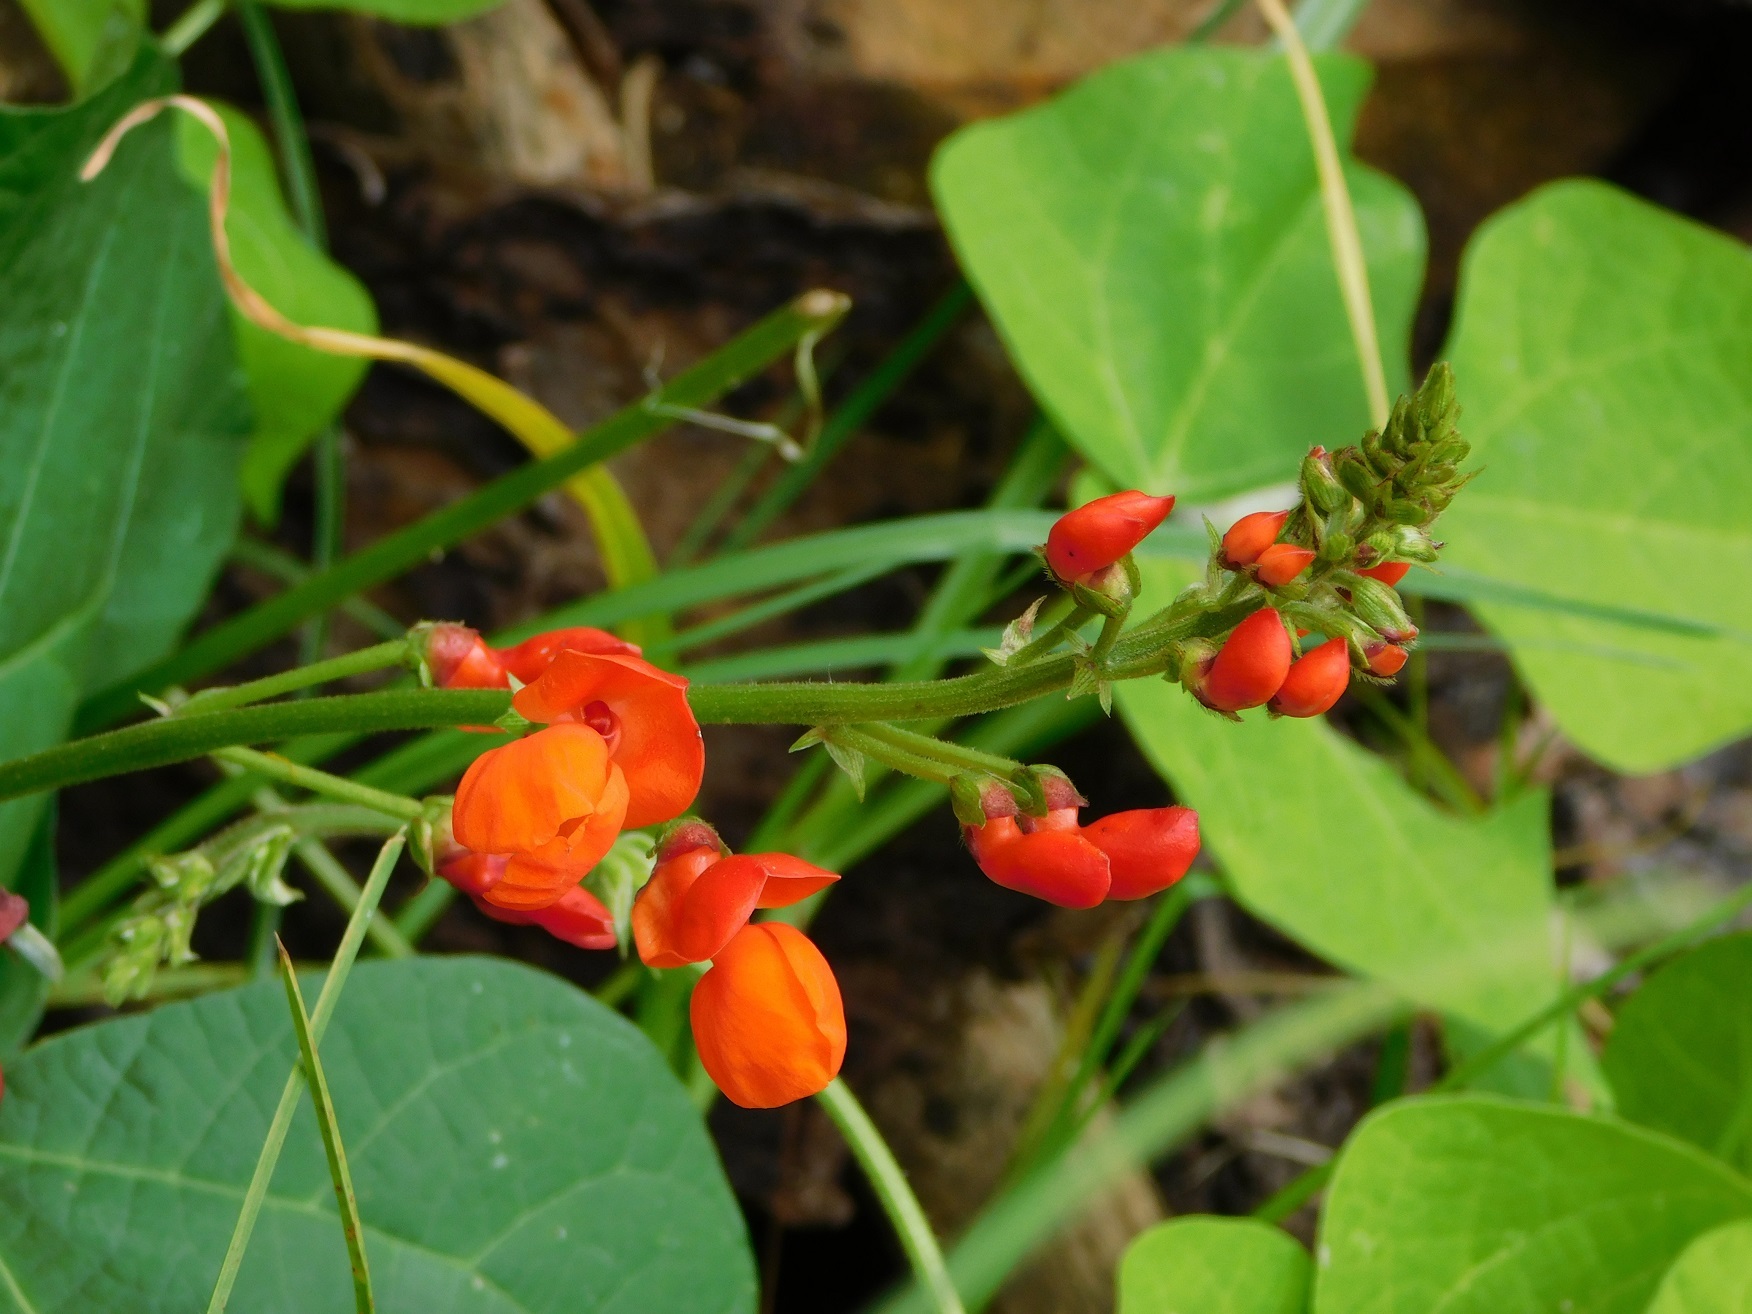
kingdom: Plantae
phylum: Tracheophyta
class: Magnoliopsida
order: Fabales
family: Fabaceae
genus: Phaseolus
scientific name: Phaseolus coccineus
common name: Runner bean
